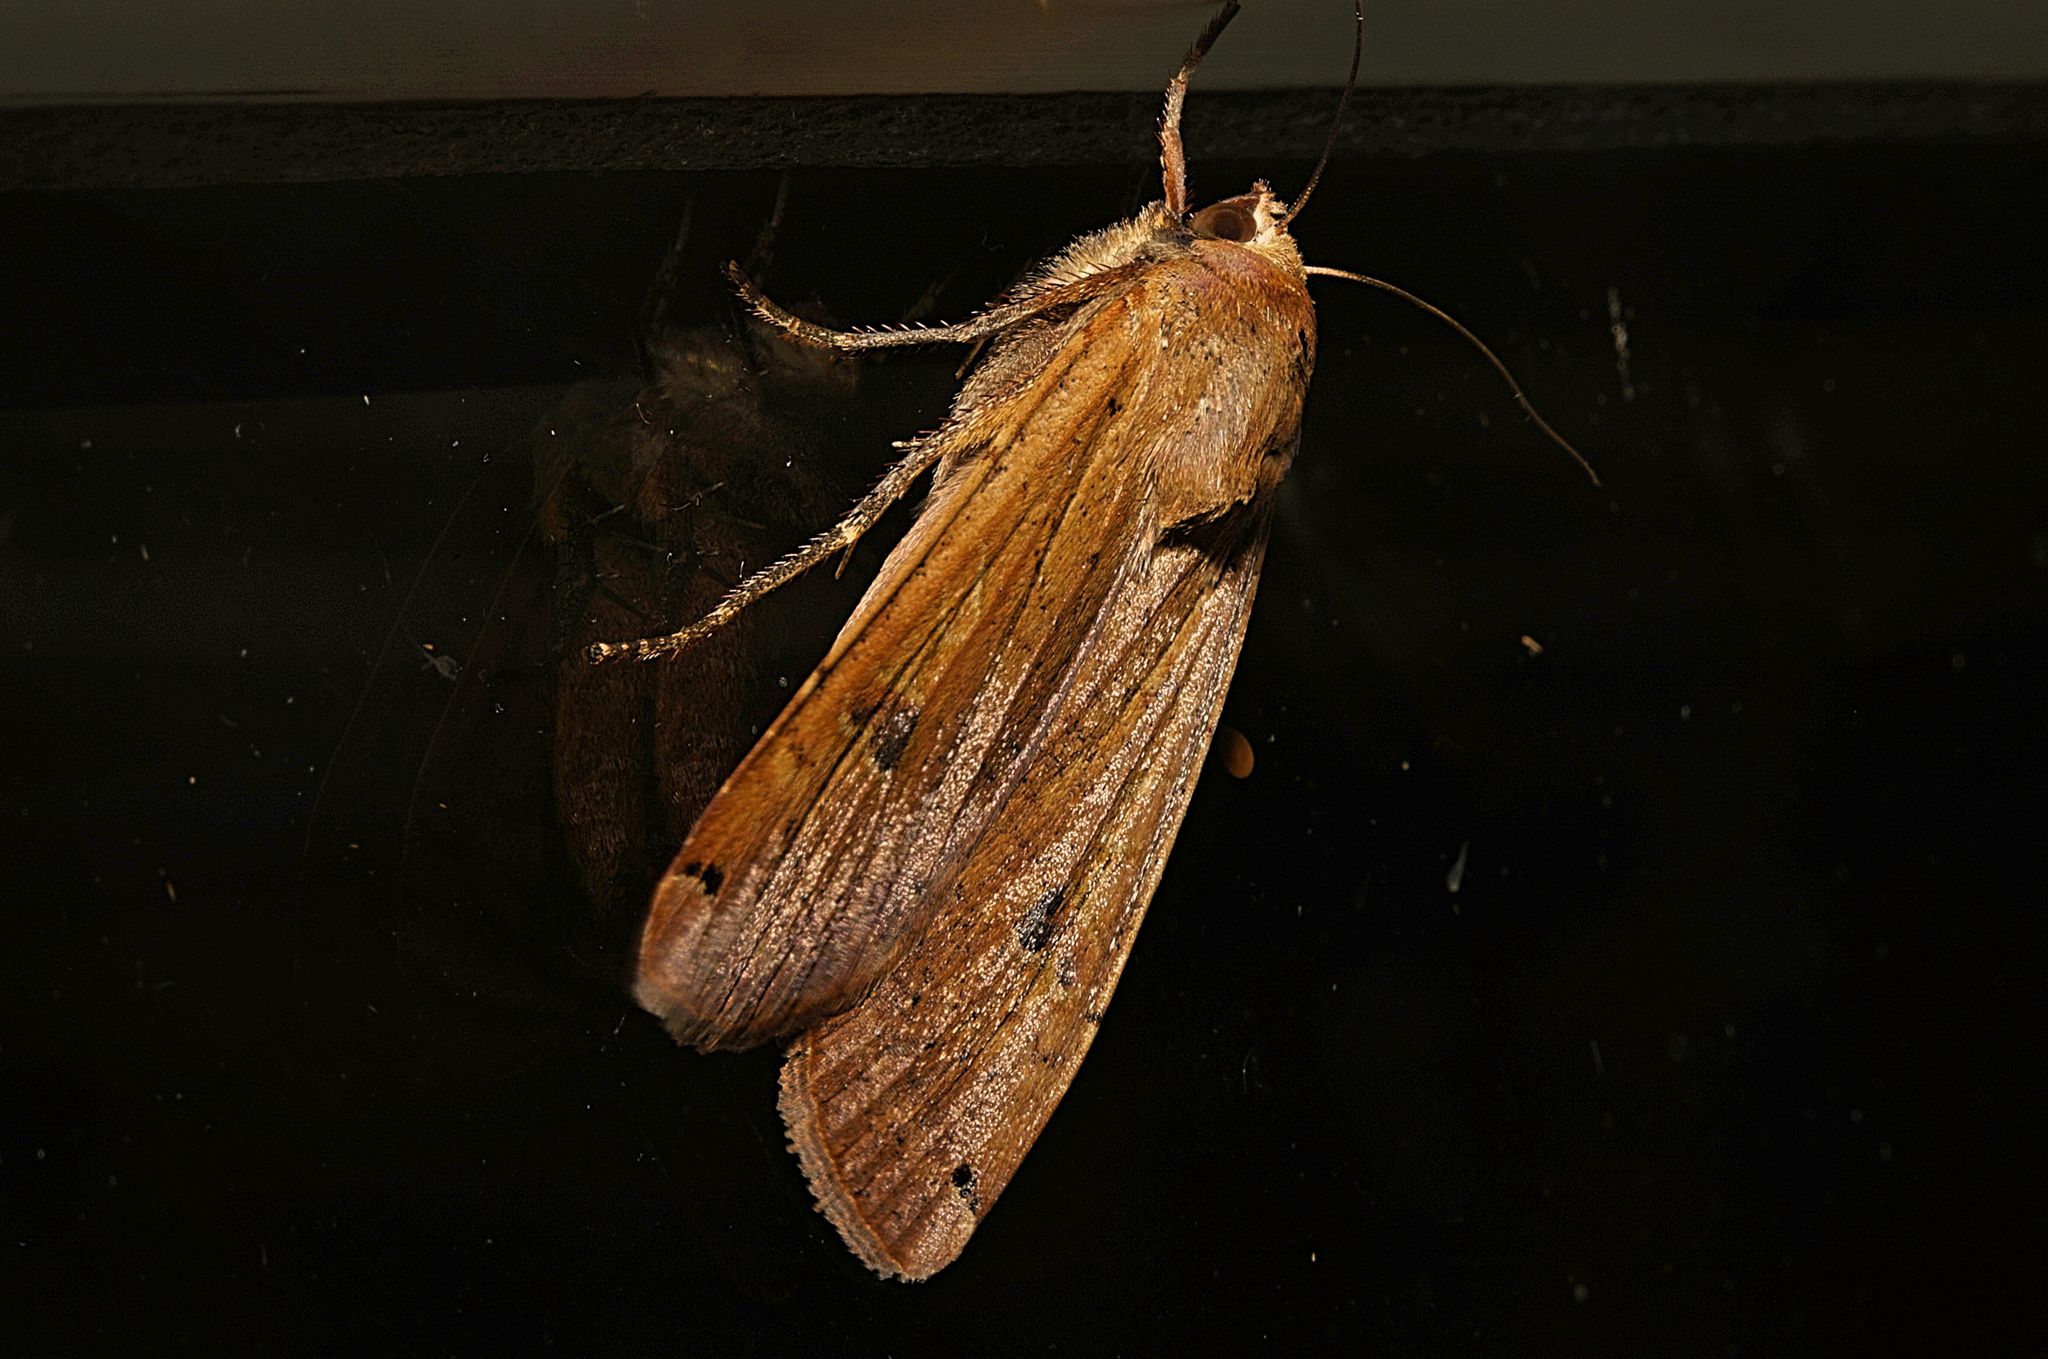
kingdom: Animalia
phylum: Arthropoda
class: Insecta
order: Lepidoptera
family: Noctuidae
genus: Noctua
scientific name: Noctua pronuba
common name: Large yellow underwing
